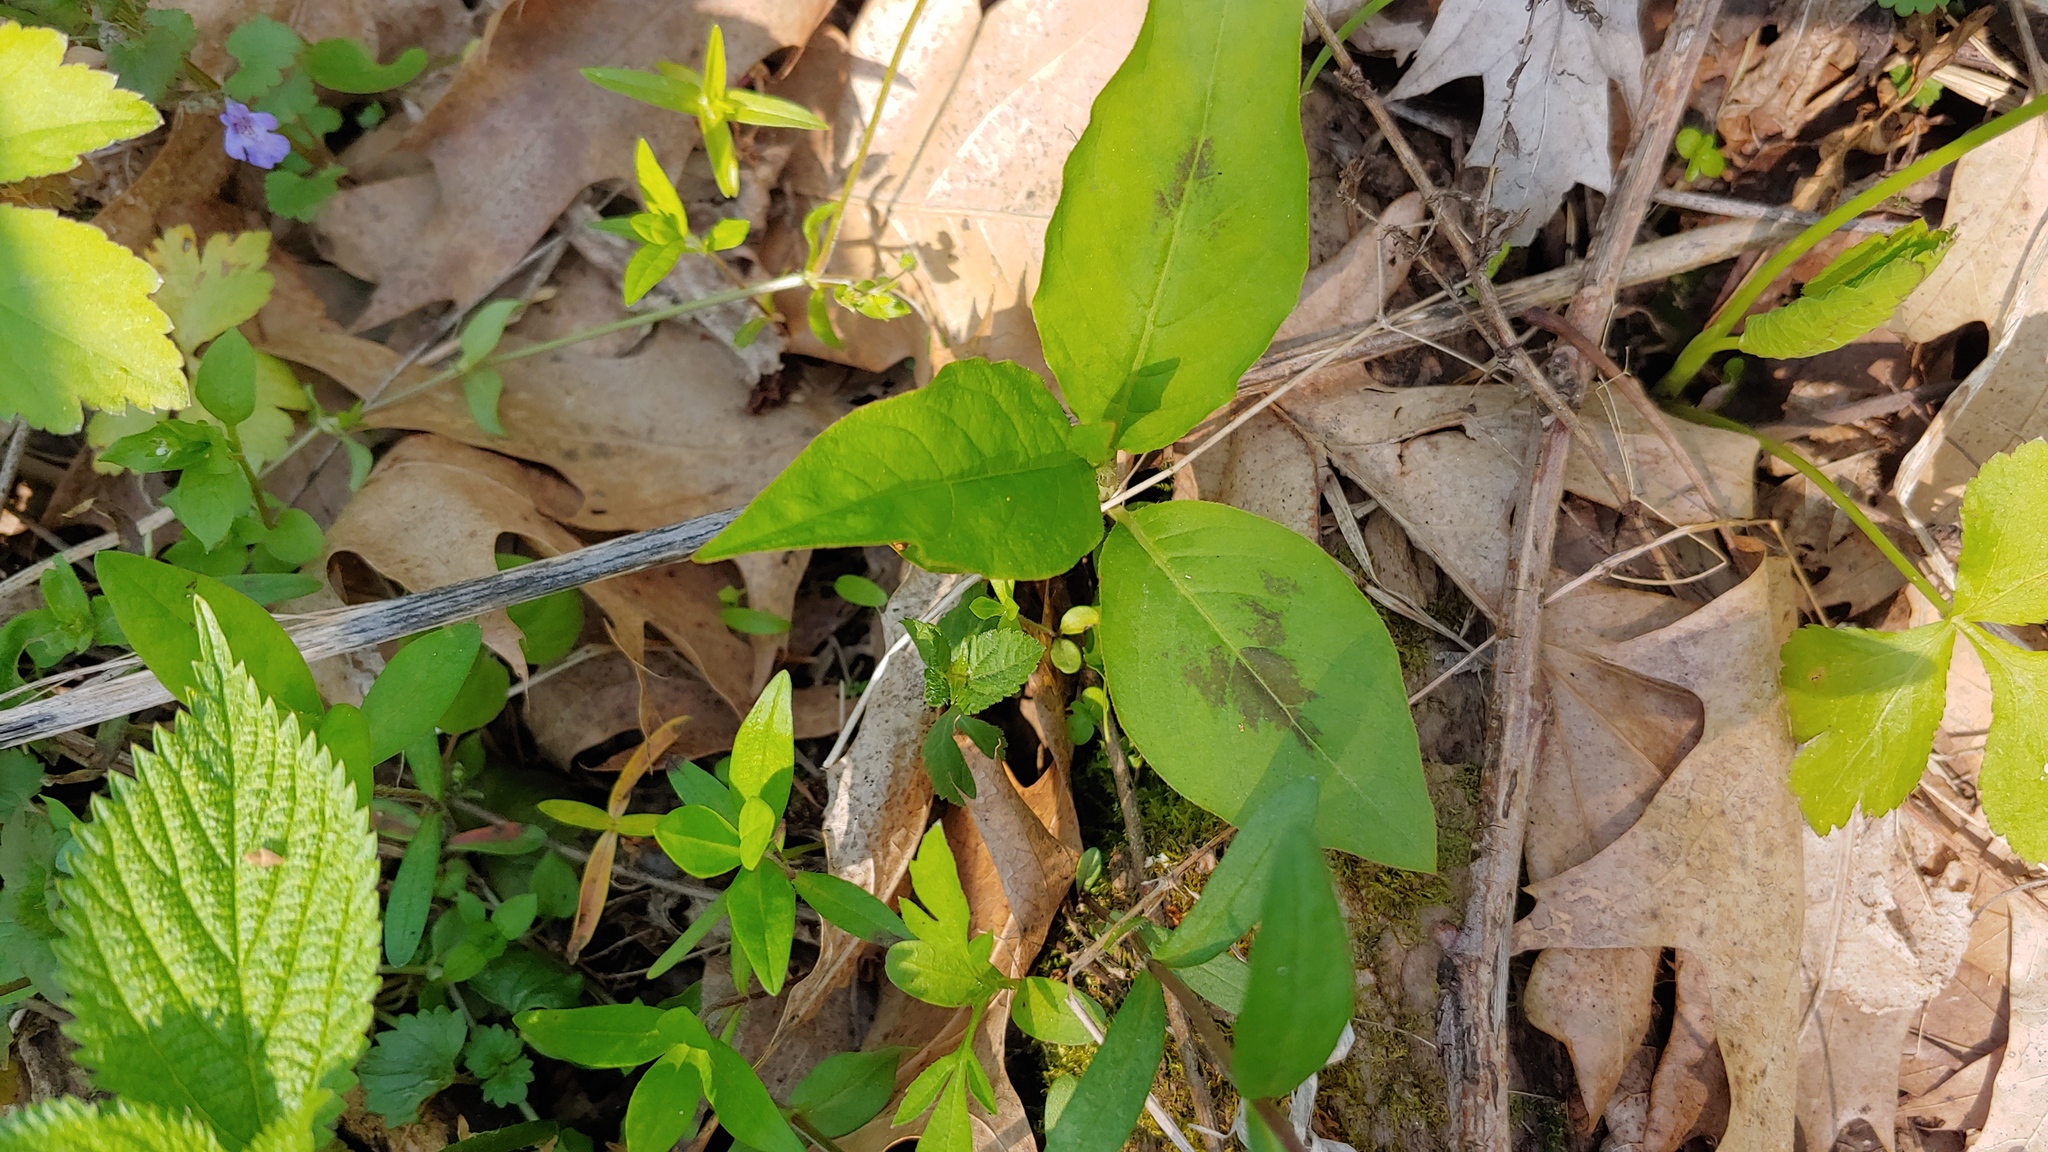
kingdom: Plantae
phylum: Tracheophyta
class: Magnoliopsida
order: Caryophyllales
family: Polygonaceae
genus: Persicaria
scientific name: Persicaria virginiana
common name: Jumpseed
